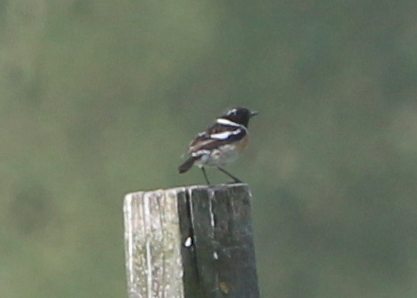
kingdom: Animalia
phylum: Chordata
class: Aves
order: Passeriformes
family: Muscicapidae
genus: Saxicola
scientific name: Saxicola rubicola
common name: European stonechat
